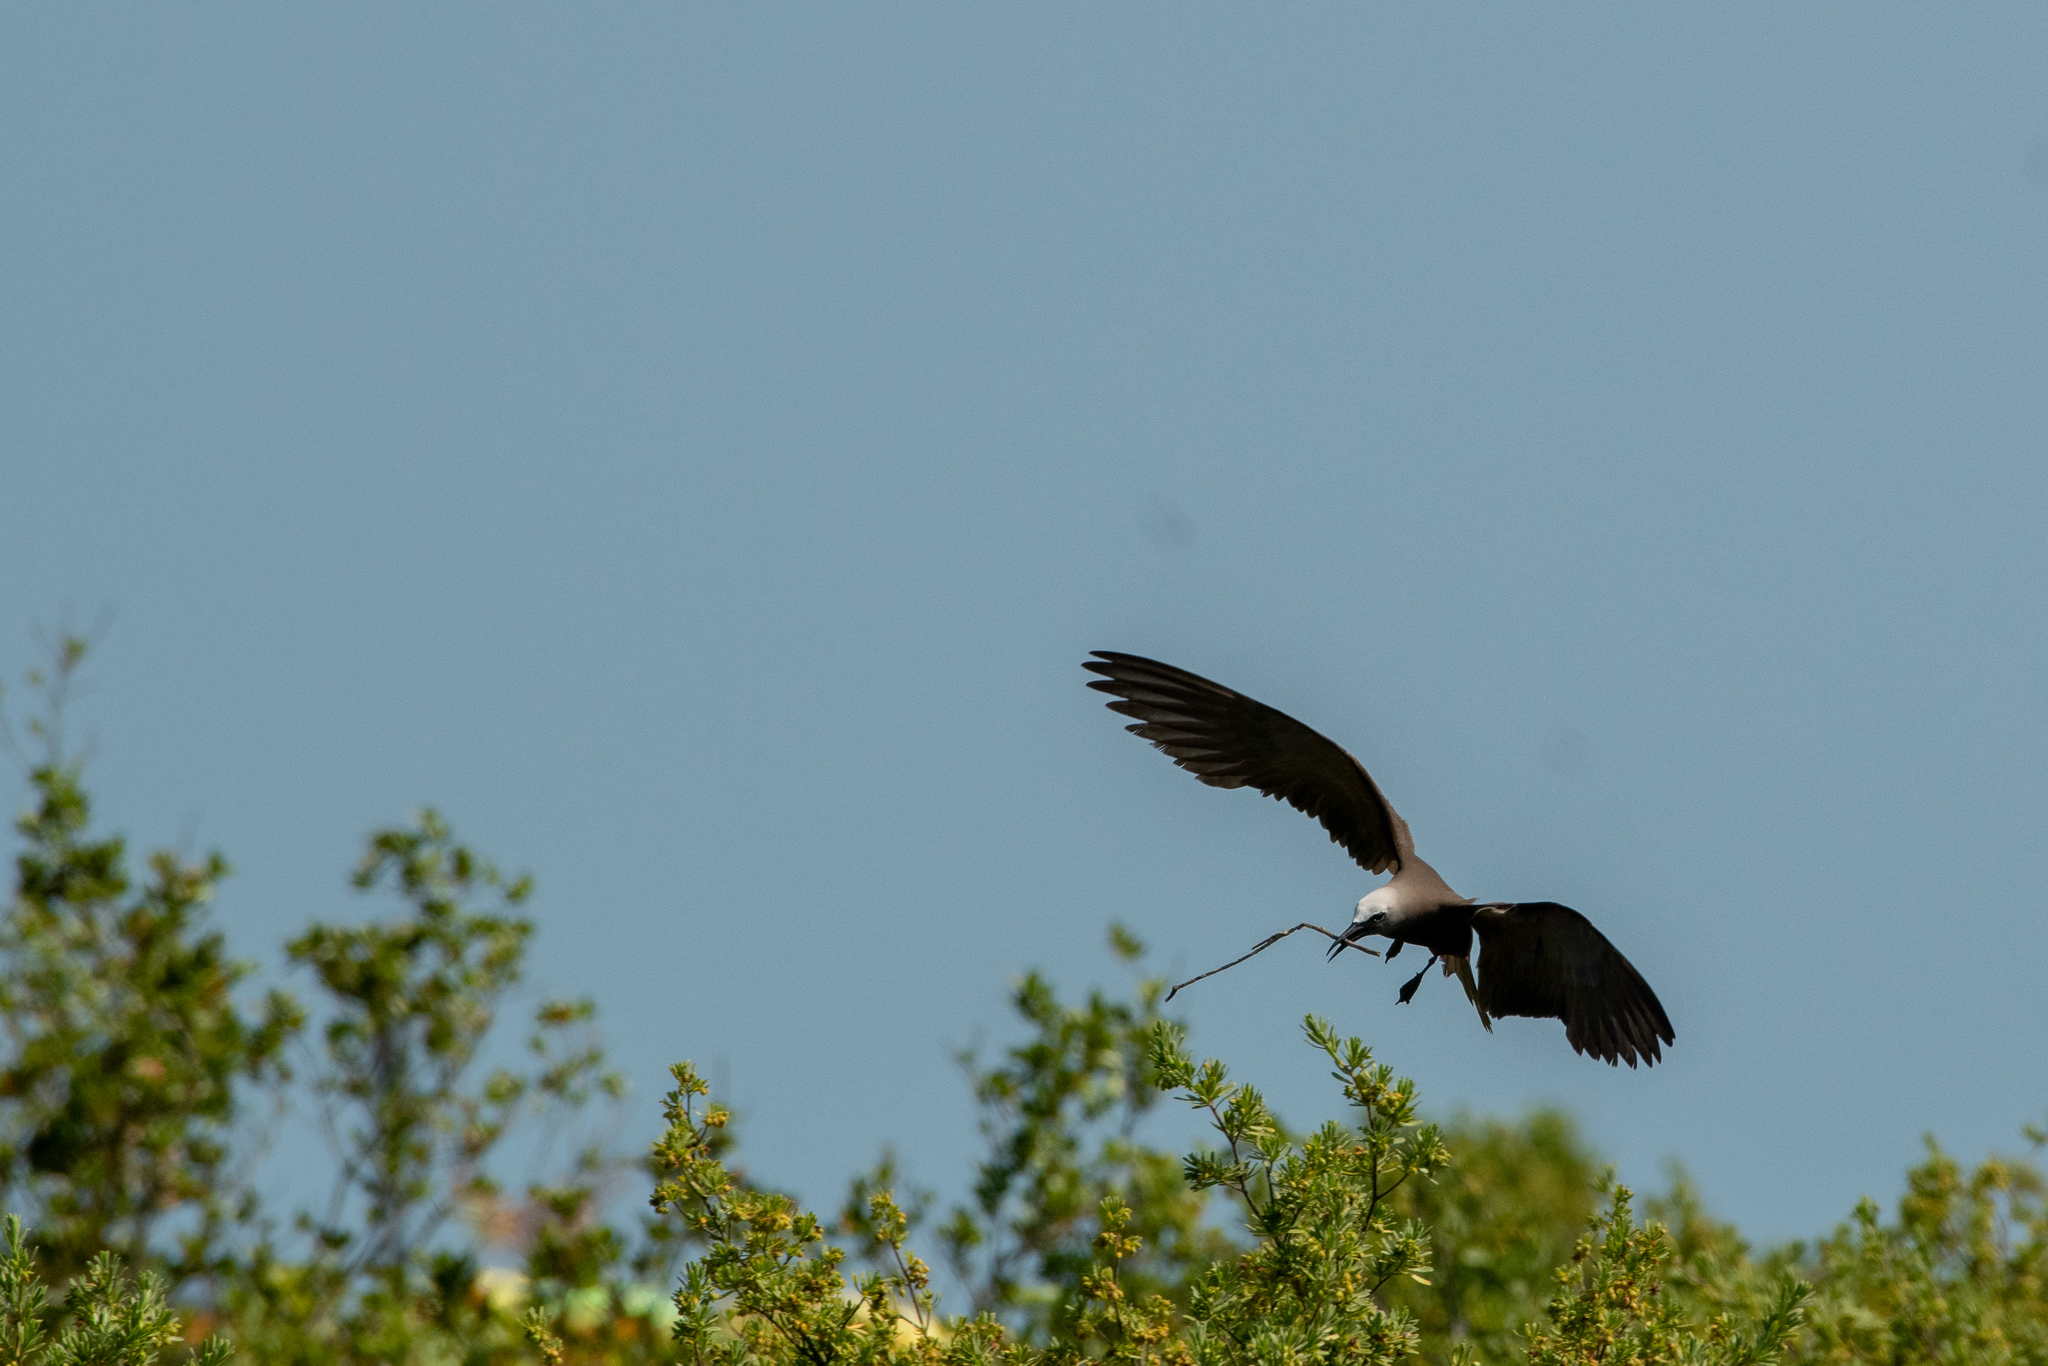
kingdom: Animalia
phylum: Chordata
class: Aves
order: Charadriiformes
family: Laridae
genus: Anous
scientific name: Anous stolidus
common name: Brown noddy
